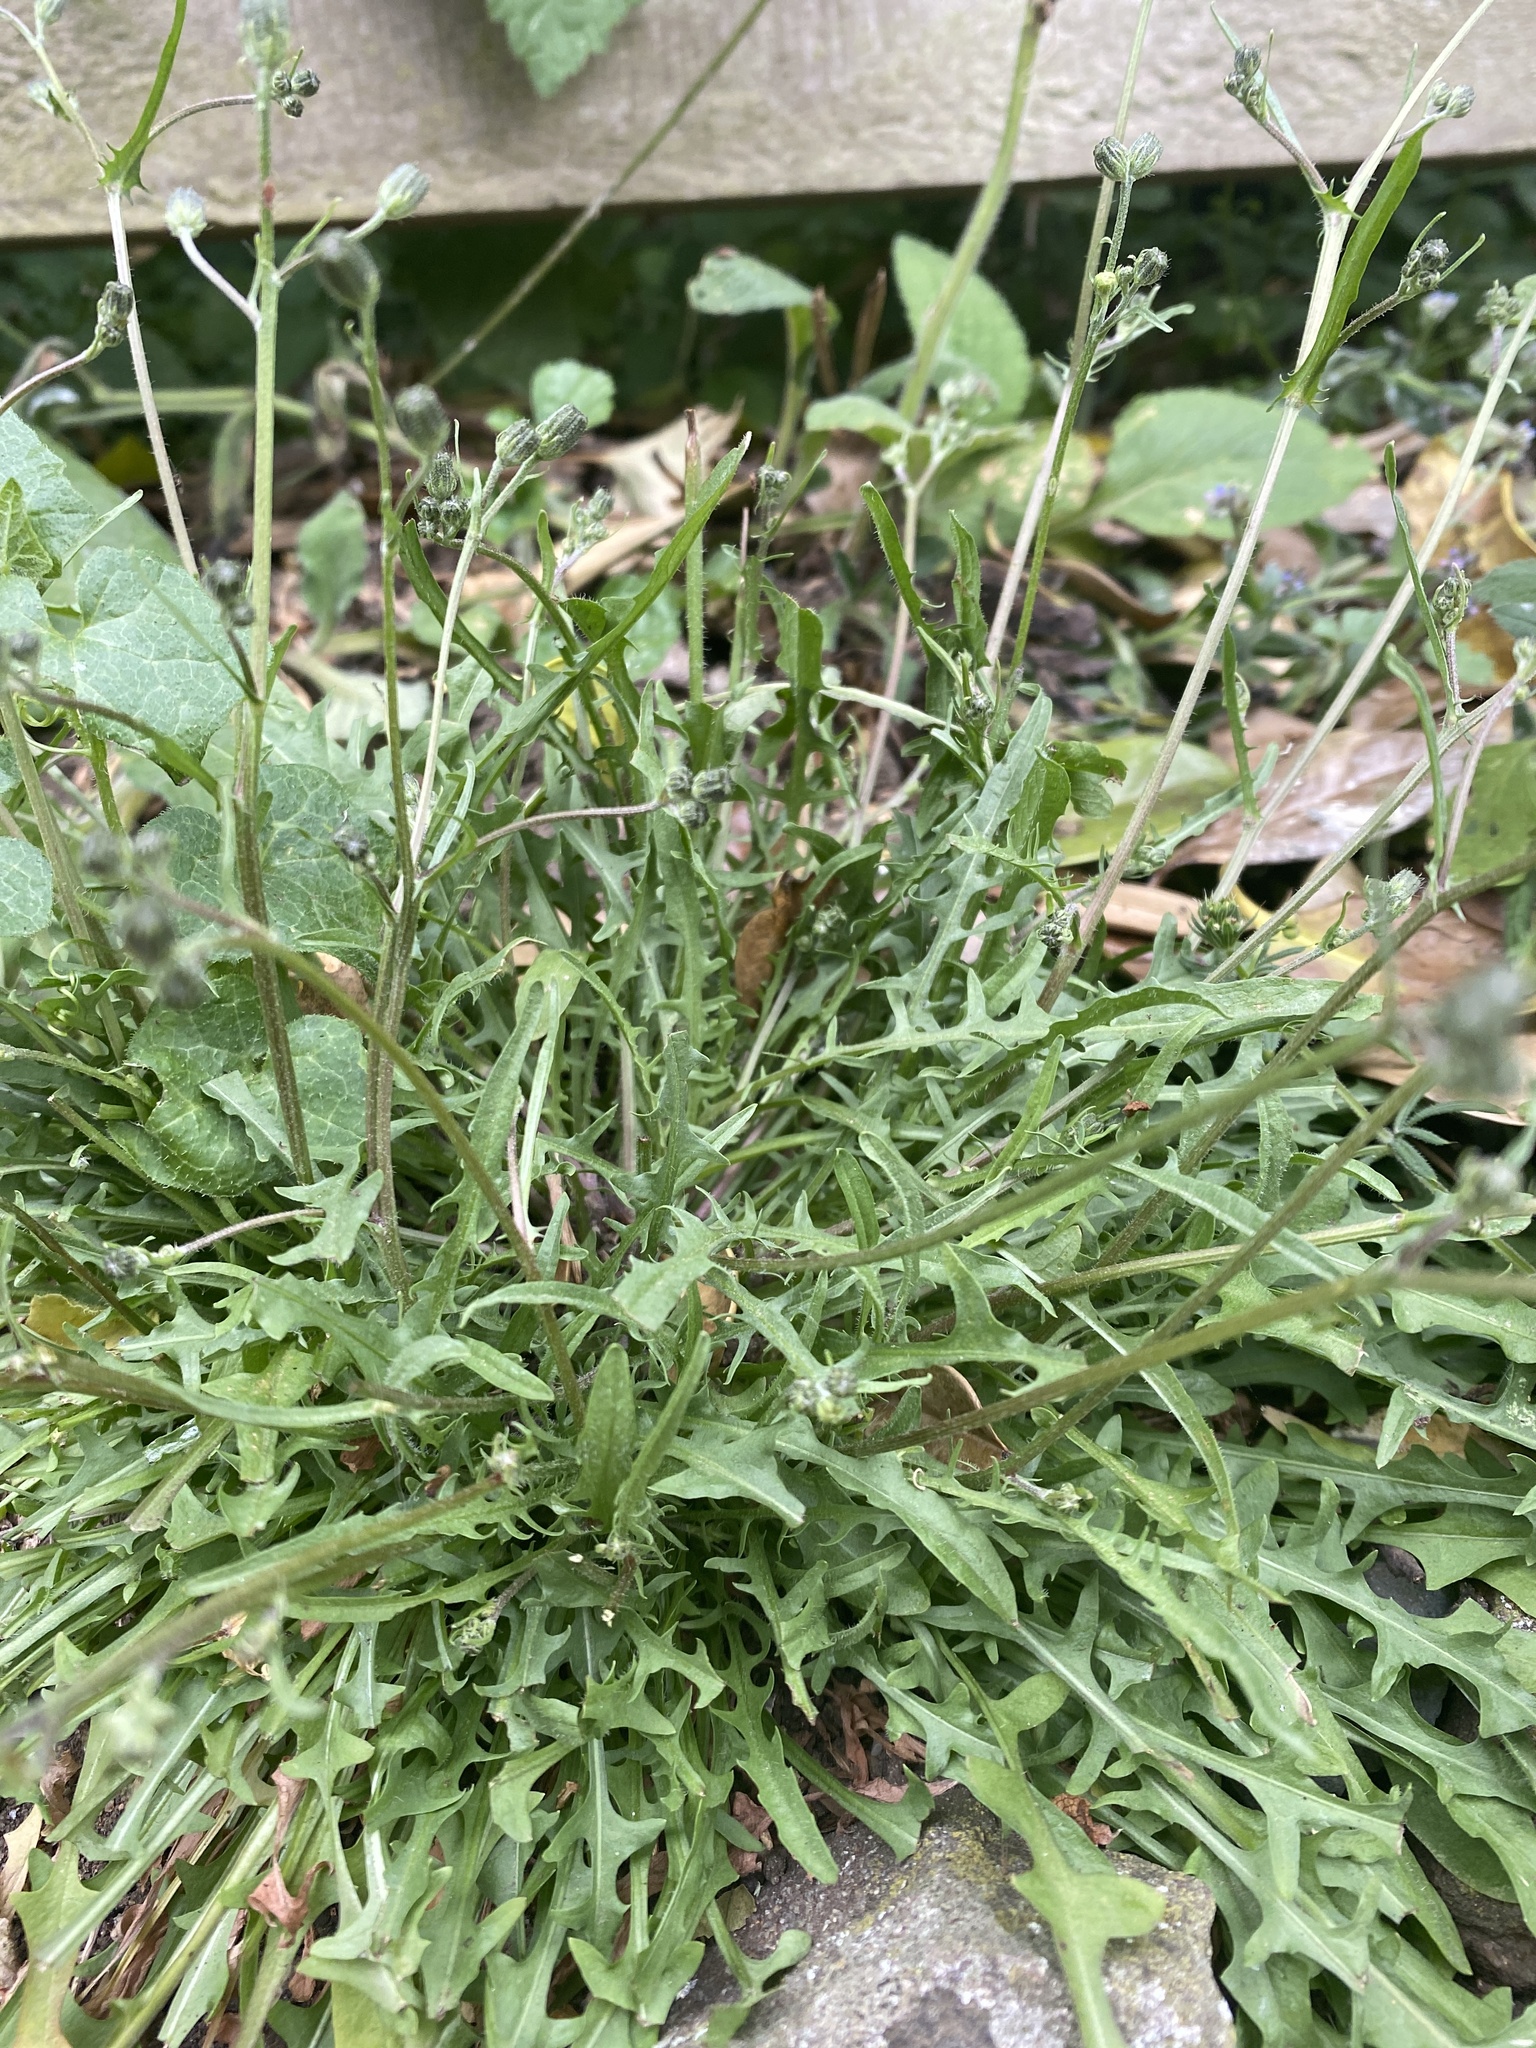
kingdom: Plantae
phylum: Tracheophyta
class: Magnoliopsida
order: Asterales
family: Asteraceae
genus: Crepis
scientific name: Crepis capillaris
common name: Smooth hawksbeard
